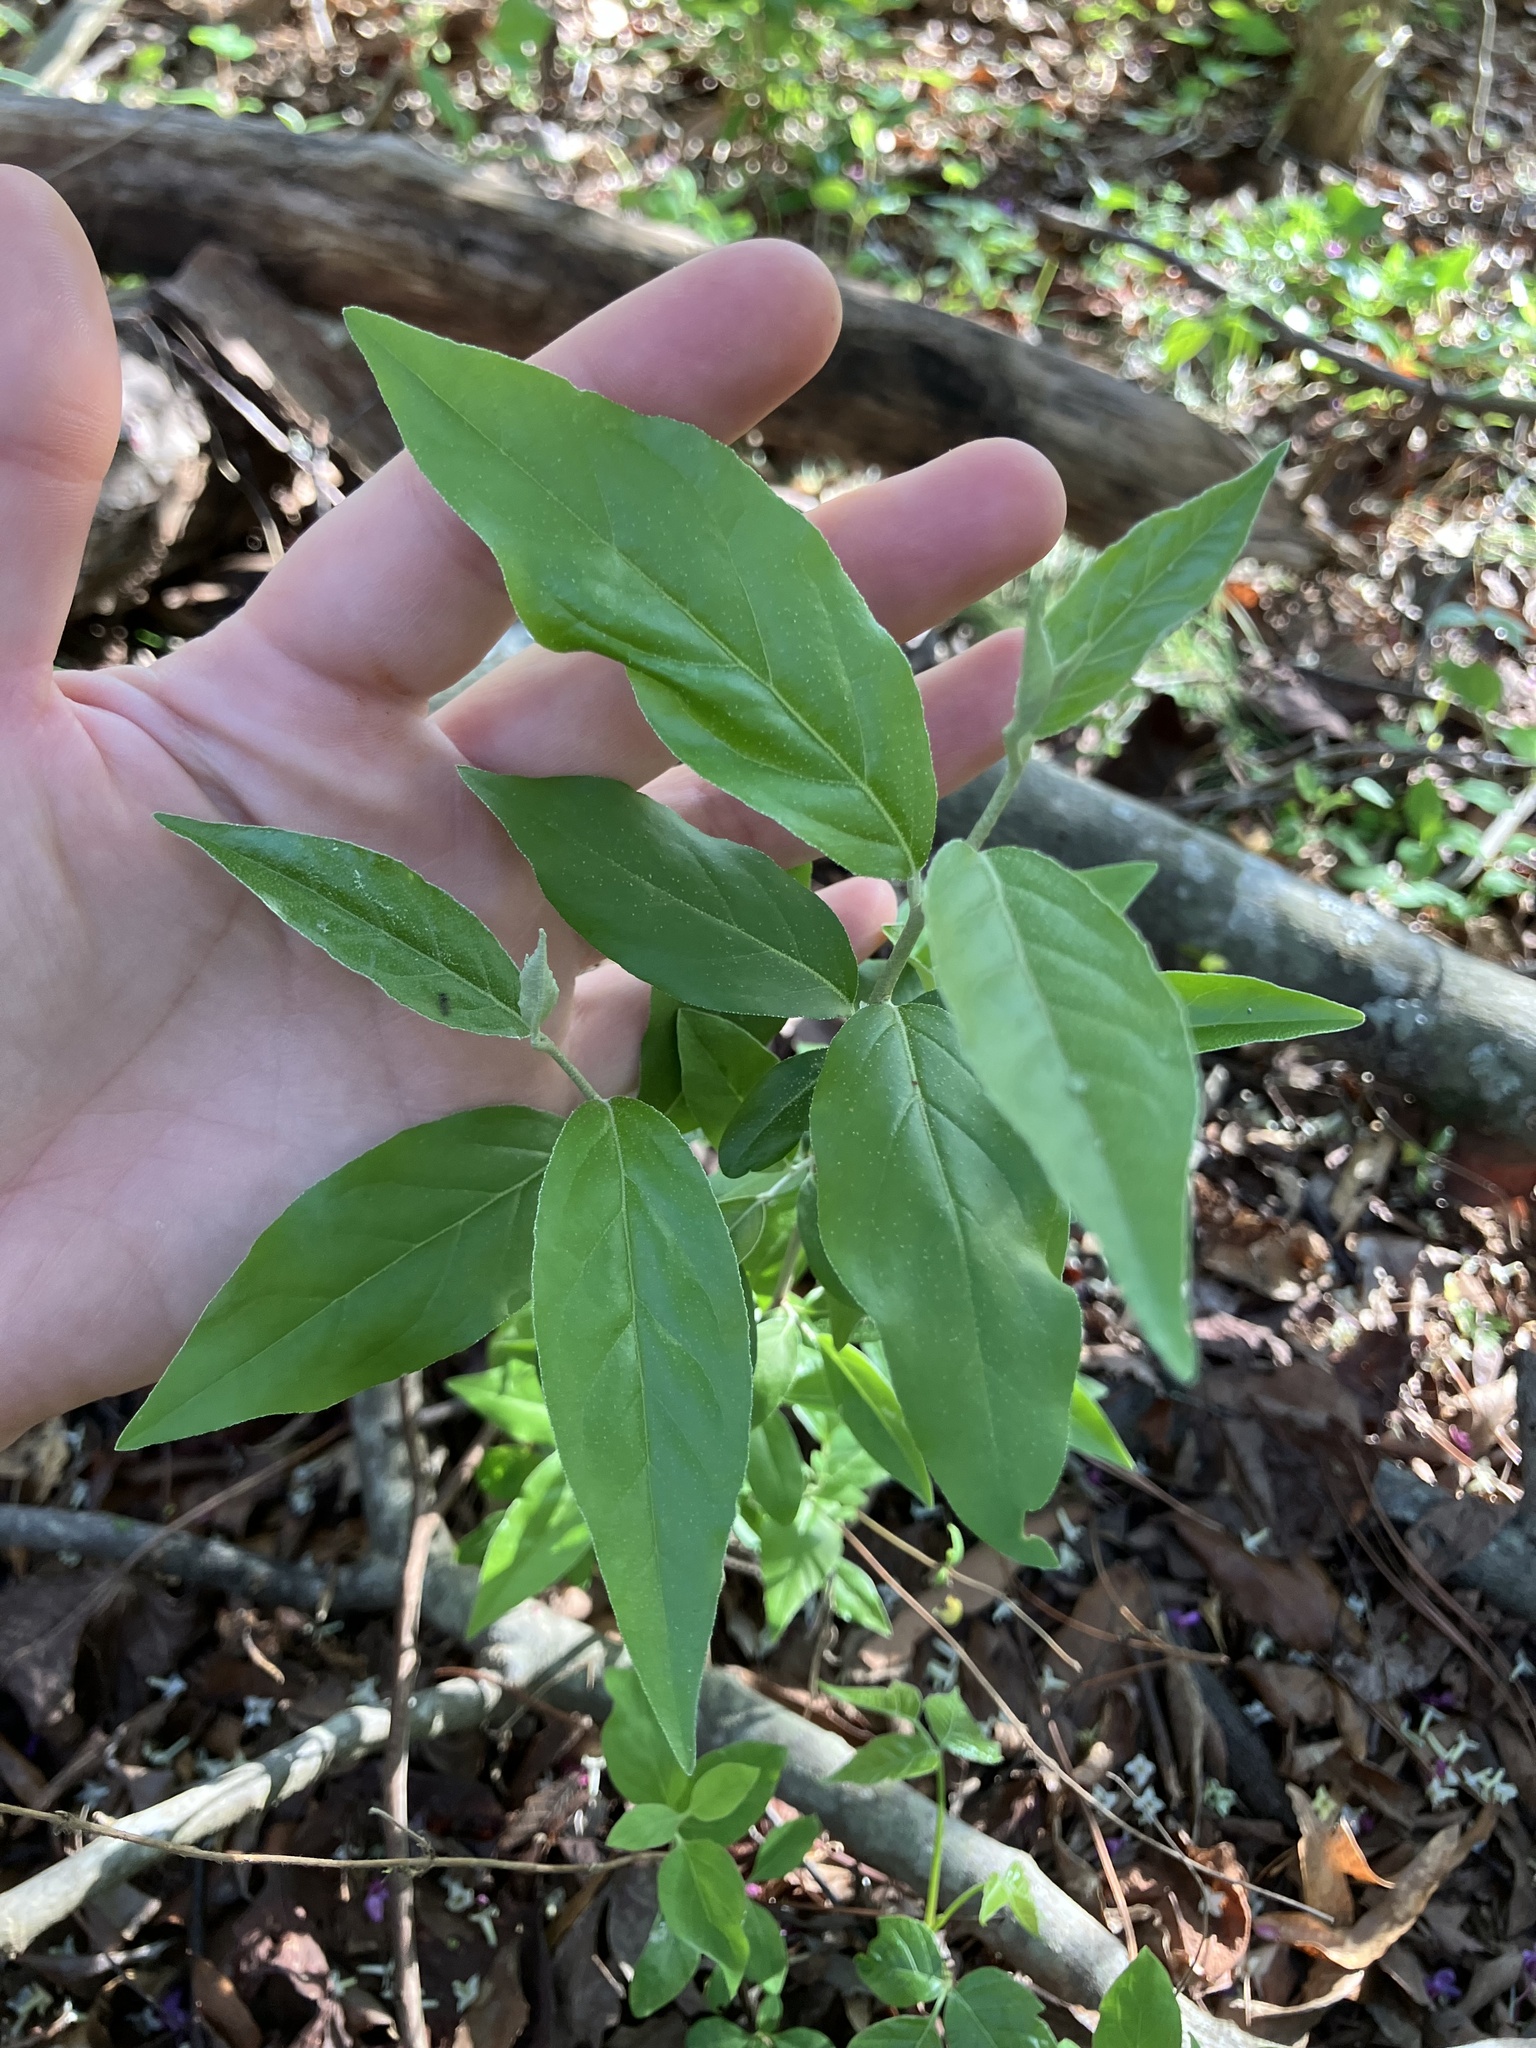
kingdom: Plantae
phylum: Tracheophyta
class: Magnoliopsida
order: Rosales
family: Elaeagnaceae
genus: Elaeagnus
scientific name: Elaeagnus umbellata
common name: Autumn olive
